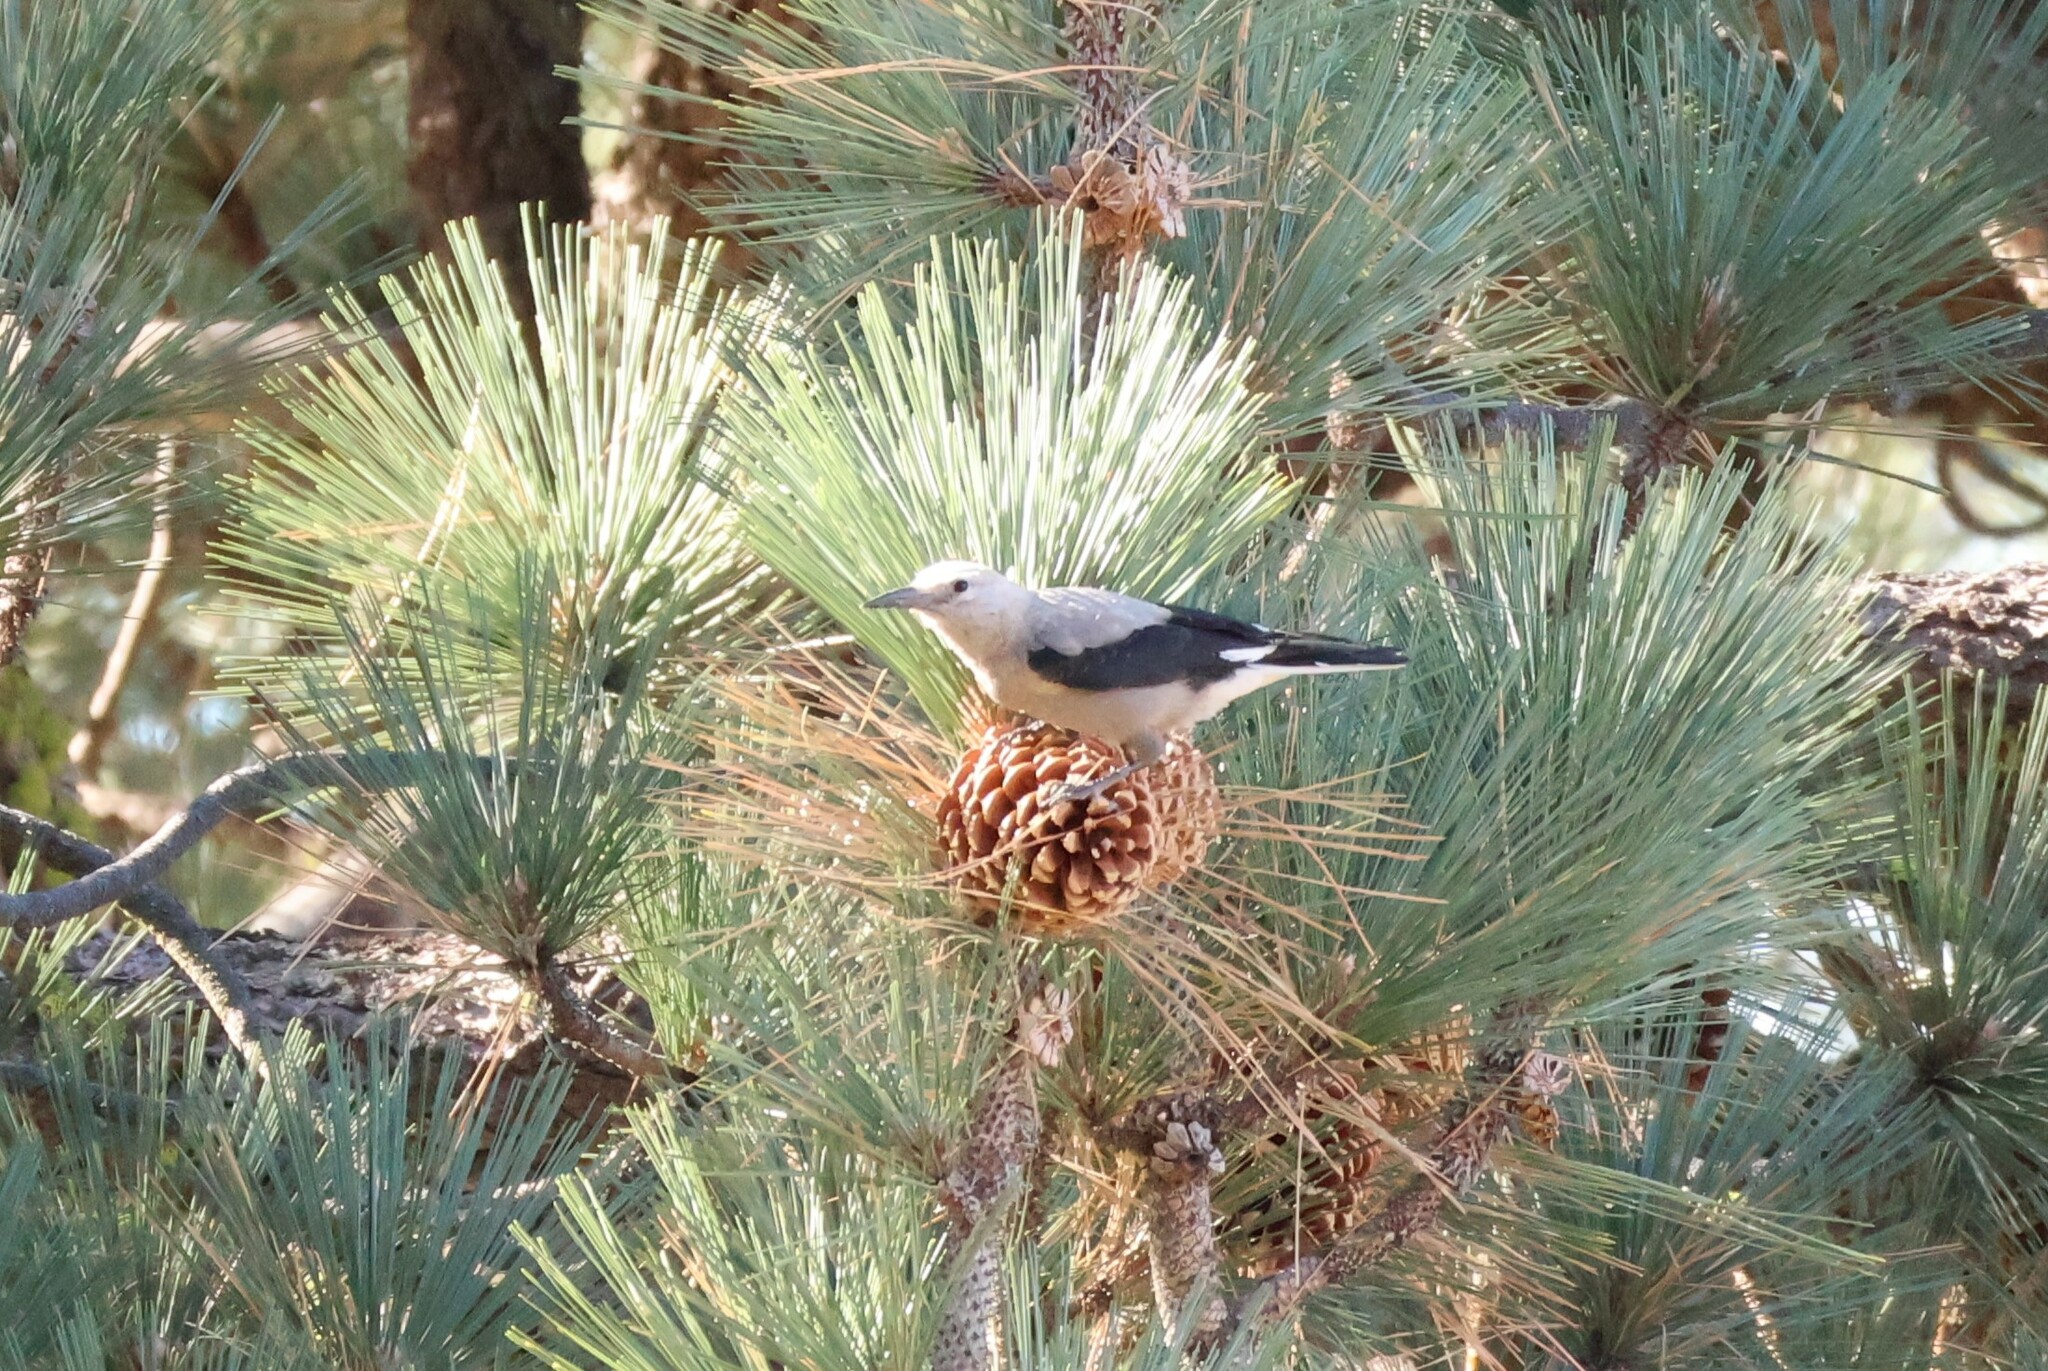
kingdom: Animalia
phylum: Chordata
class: Aves
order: Passeriformes
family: Corvidae
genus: Nucifraga
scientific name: Nucifraga columbiana
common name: Clark's nutcracker
